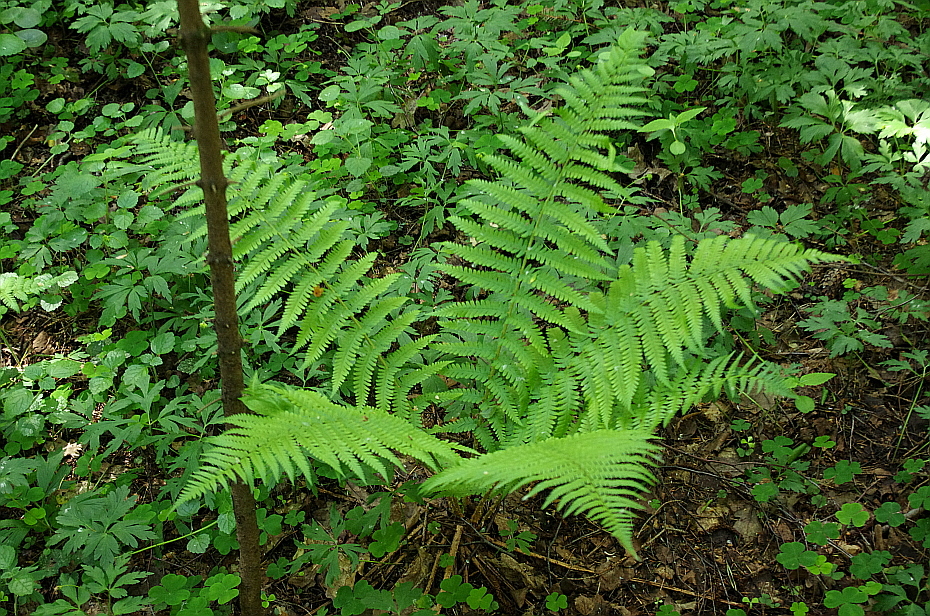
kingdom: Plantae
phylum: Tracheophyta
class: Polypodiopsida
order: Polypodiales
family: Dryopteridaceae
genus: Dryopteris
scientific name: Dryopteris filix-mas
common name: Male fern
